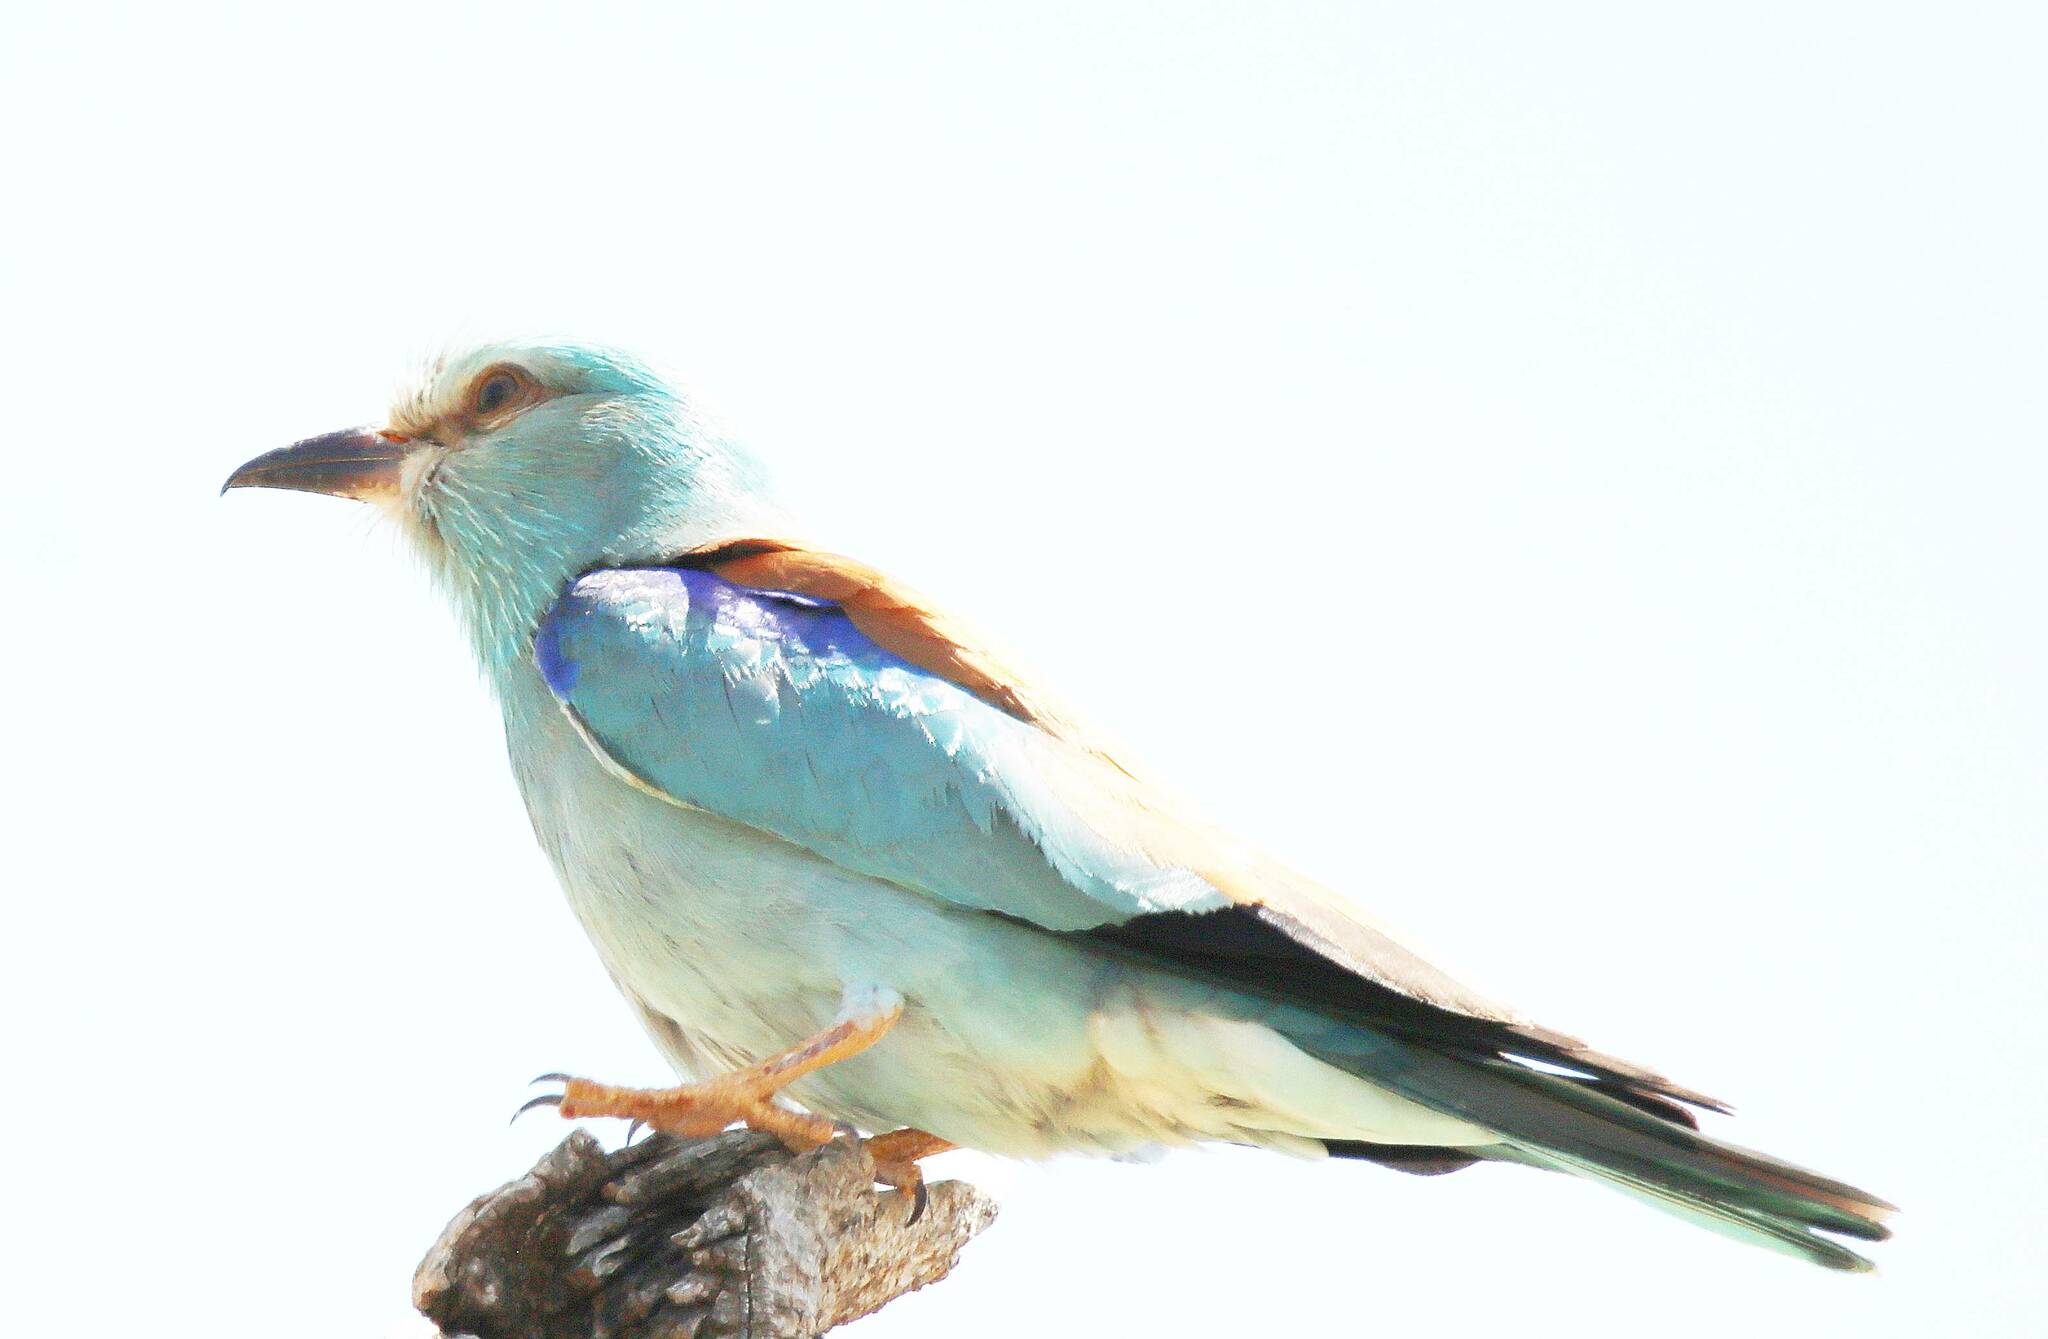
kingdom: Animalia
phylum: Chordata
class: Aves
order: Coraciiformes
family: Coraciidae
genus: Coracias
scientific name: Coracias garrulus
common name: European roller
